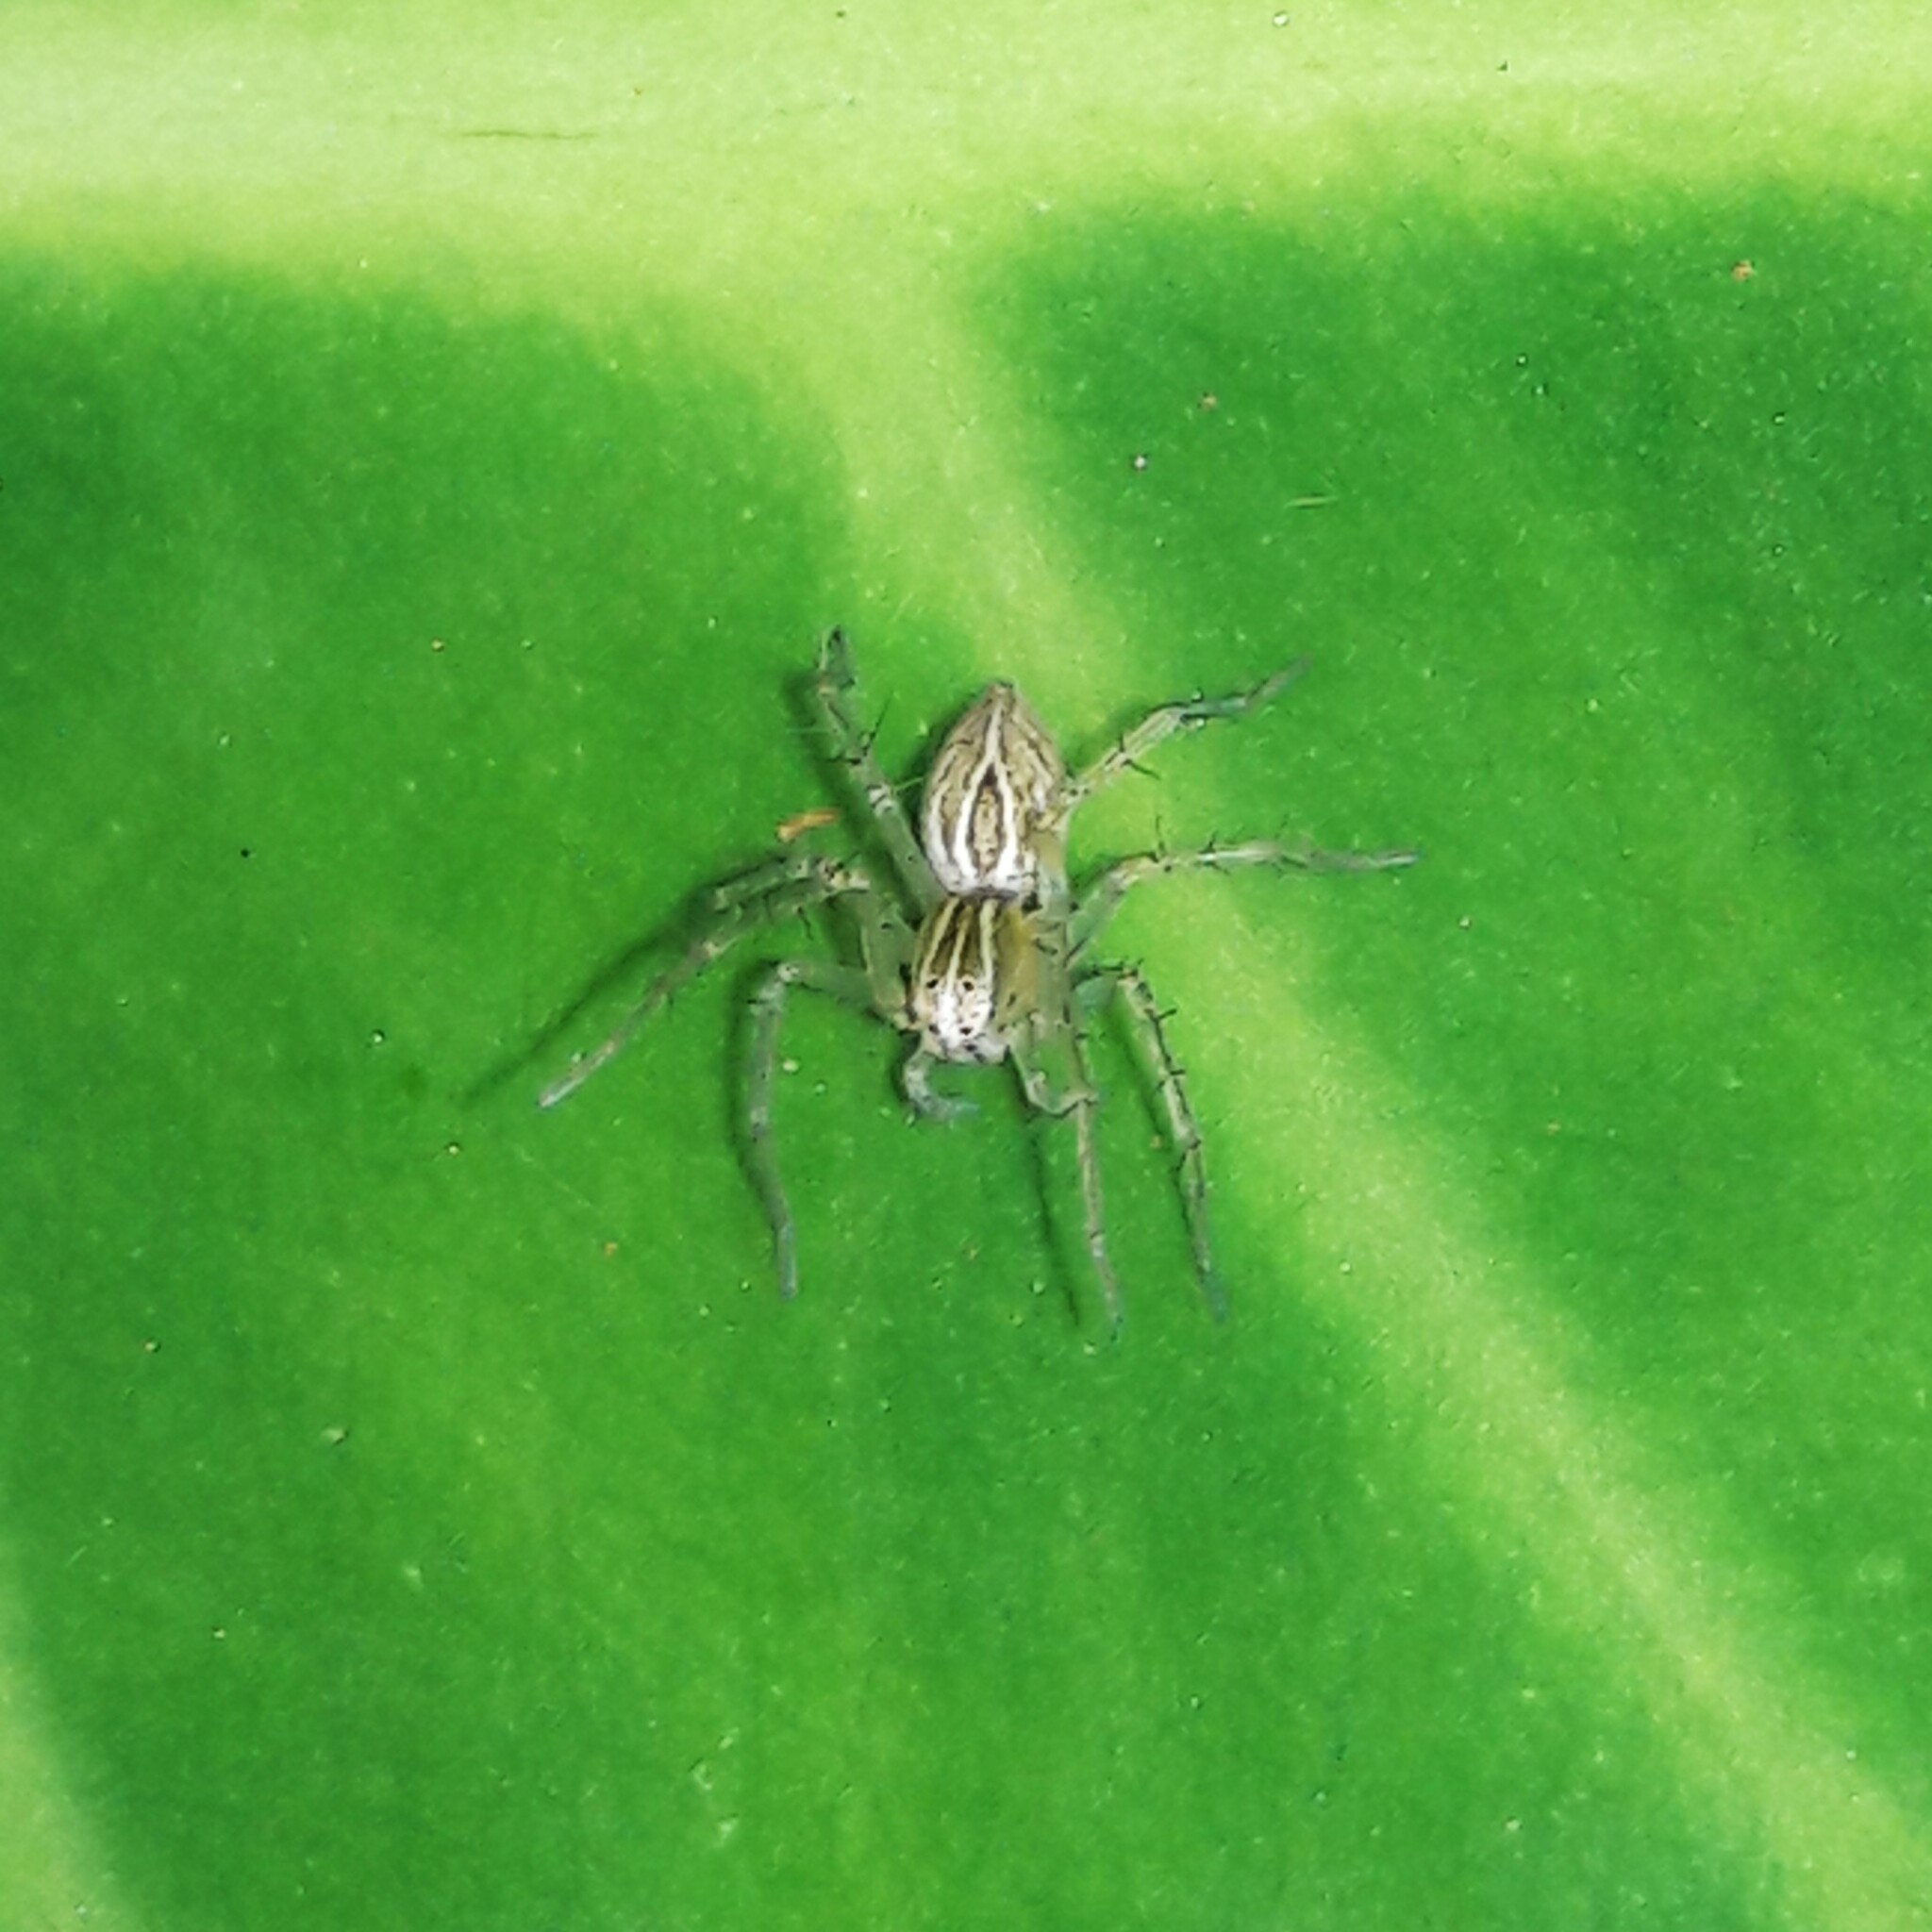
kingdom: Animalia
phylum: Arthropoda
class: Arachnida
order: Araneae
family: Oxyopidae
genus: Oxyopes
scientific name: Oxyopes salticus
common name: Lynx spiders
